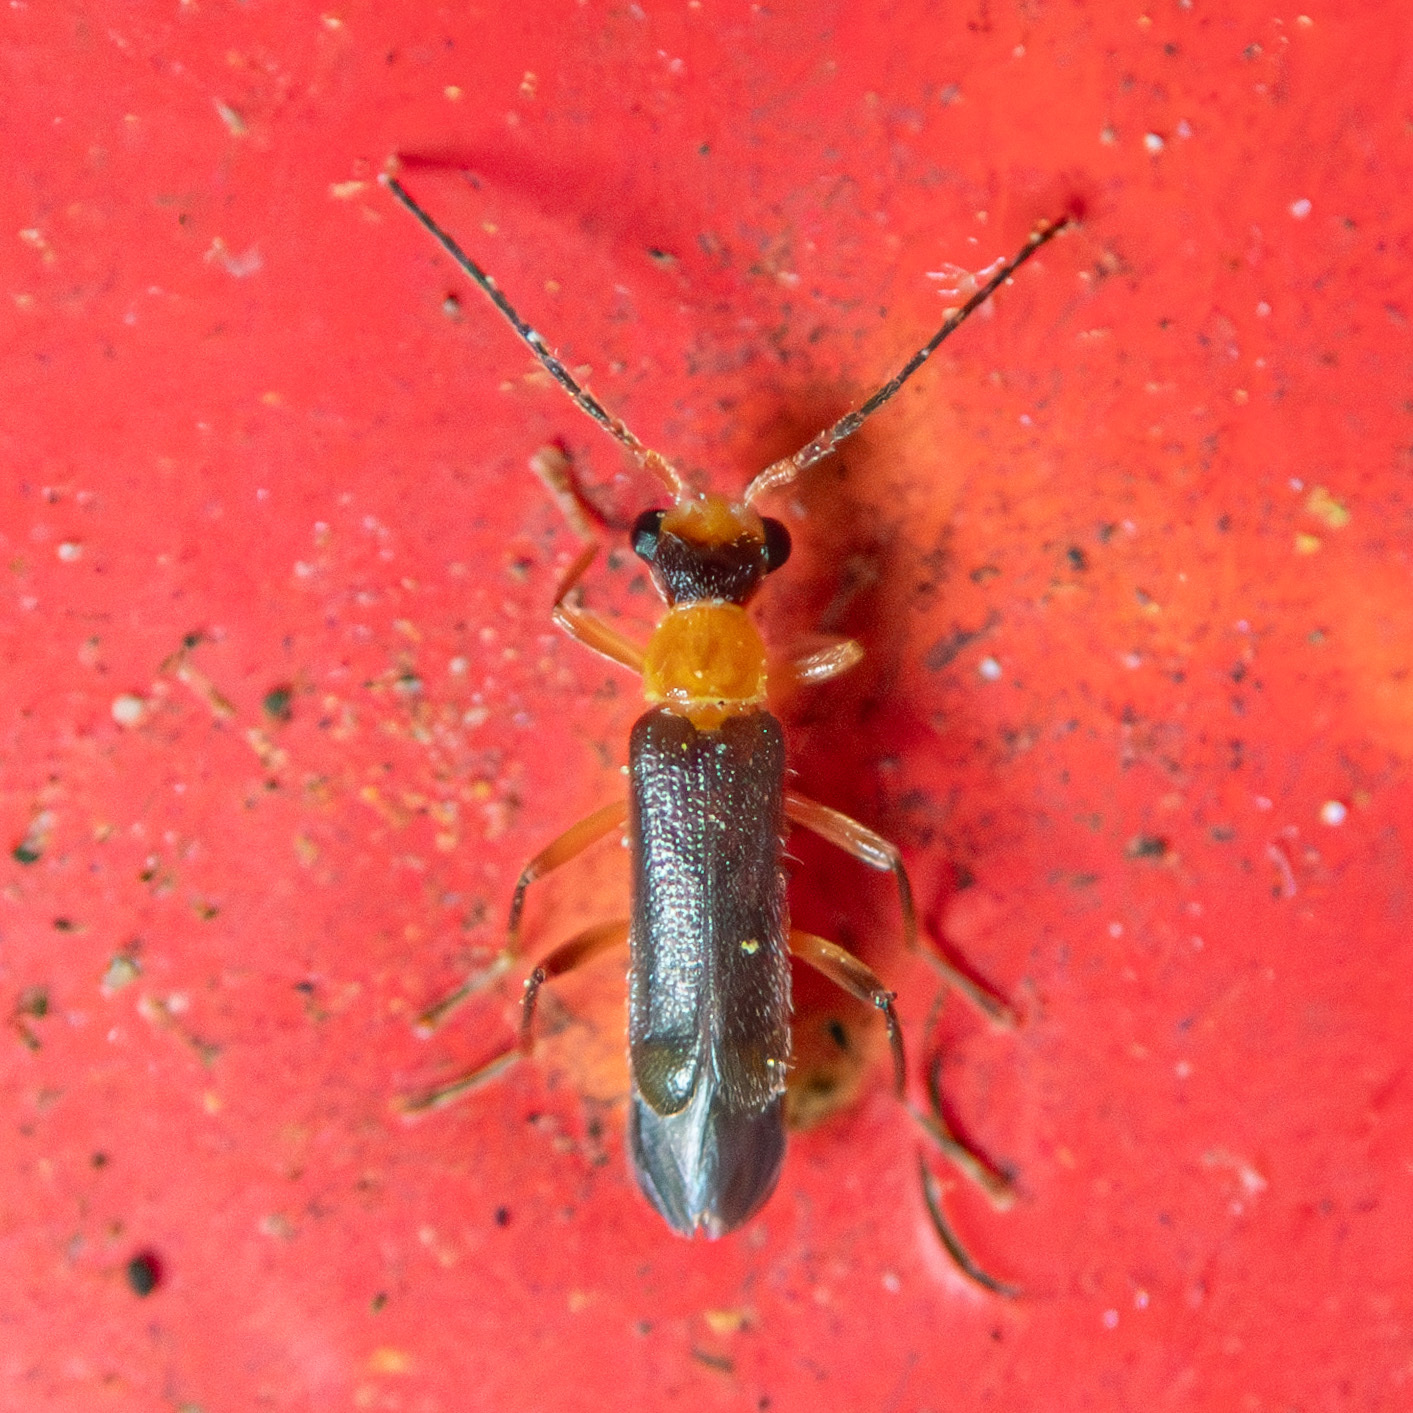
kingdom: Animalia
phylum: Arthropoda
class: Insecta
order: Coleoptera
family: Cantharidae
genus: Malthinus
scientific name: Malthinus occipitalis
